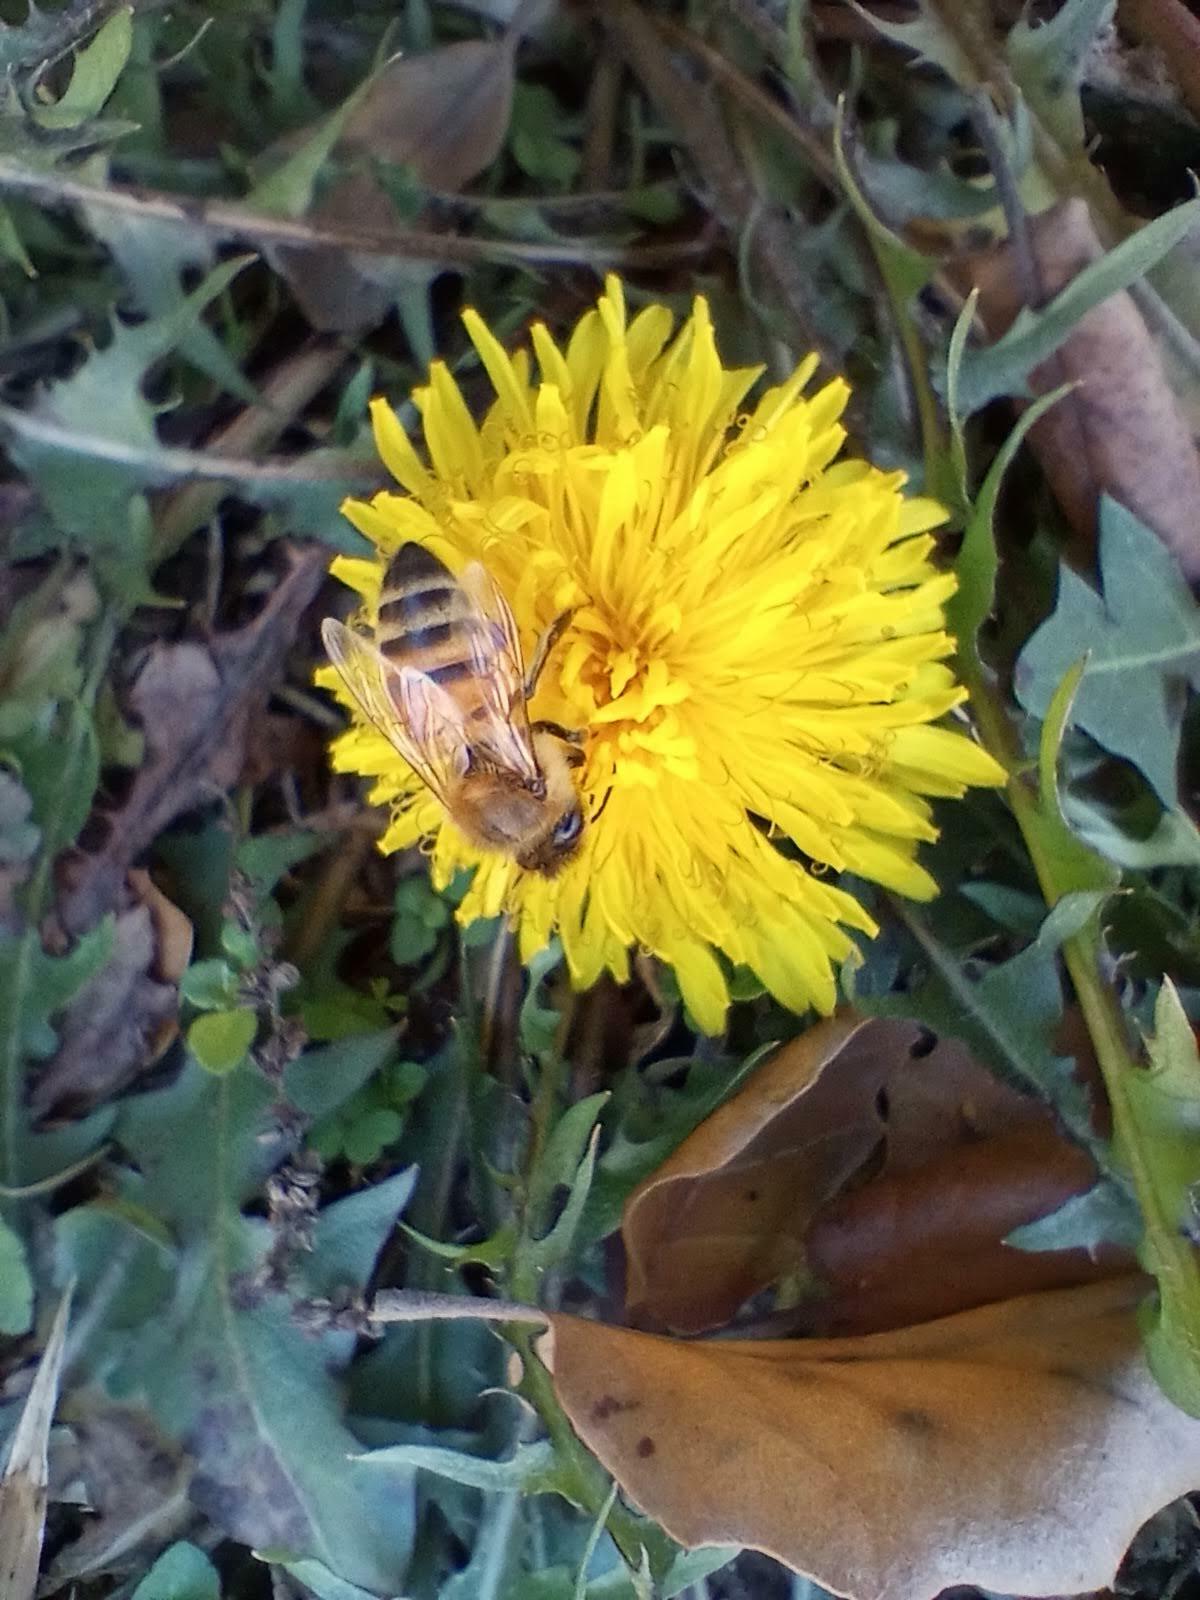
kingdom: Animalia
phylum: Arthropoda
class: Insecta
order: Hymenoptera
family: Apidae
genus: Apis
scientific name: Apis mellifera
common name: Honey bee
